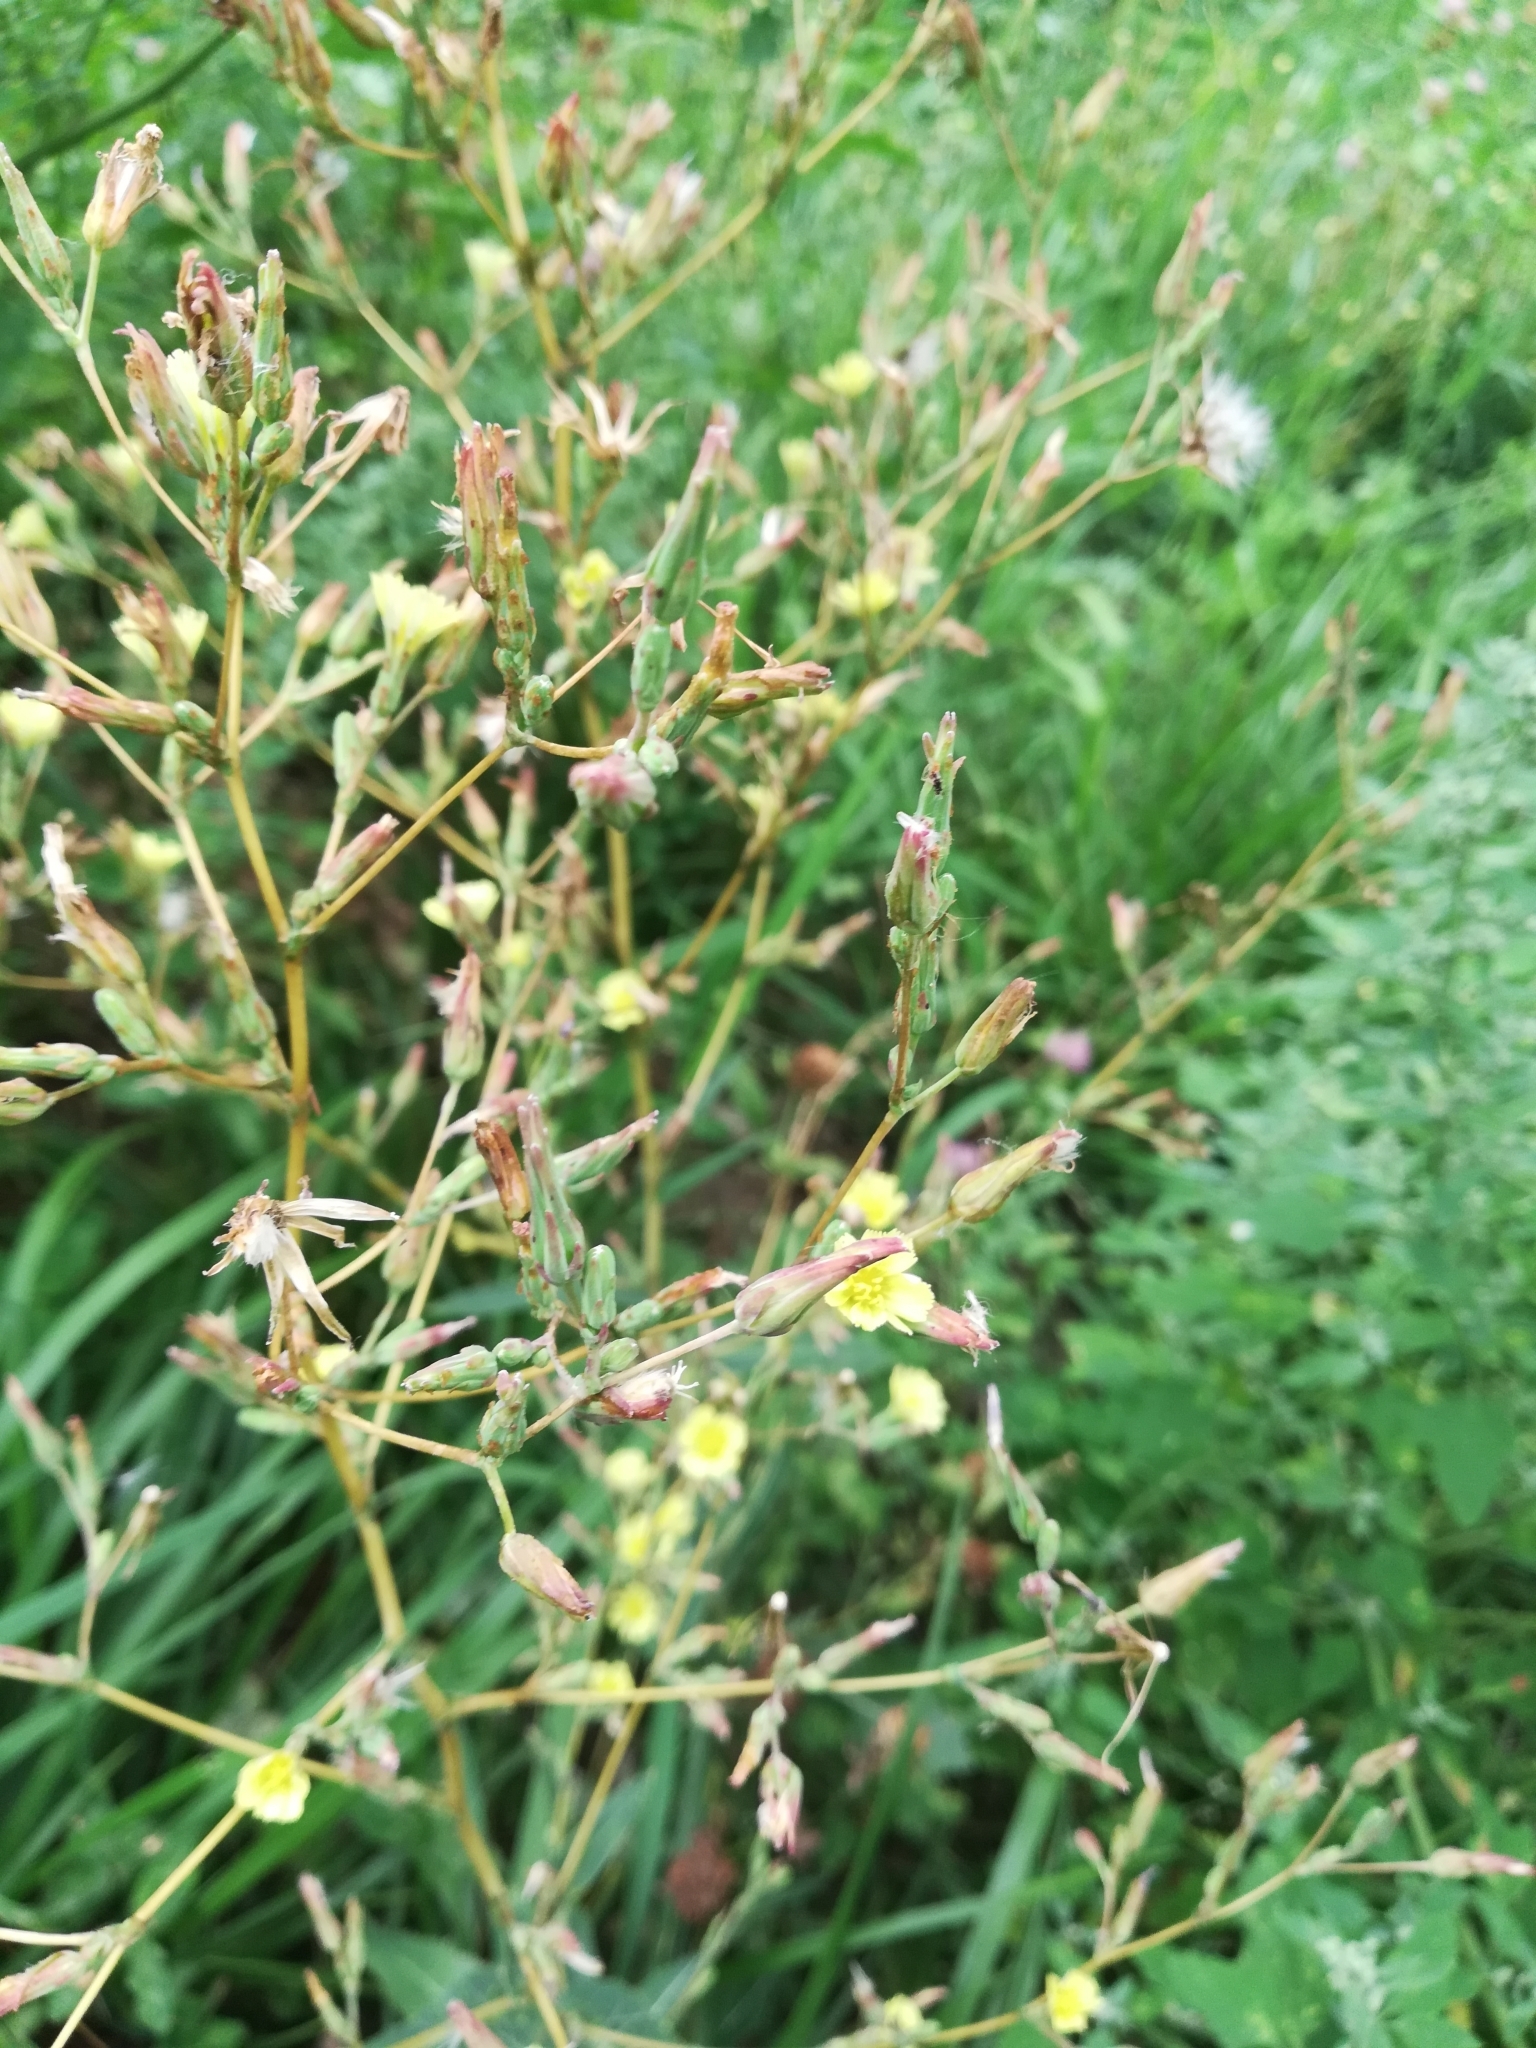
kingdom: Plantae
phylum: Tracheophyta
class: Magnoliopsida
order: Asterales
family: Asteraceae
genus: Lactuca
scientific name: Lactuca serriola
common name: Prickly lettuce
